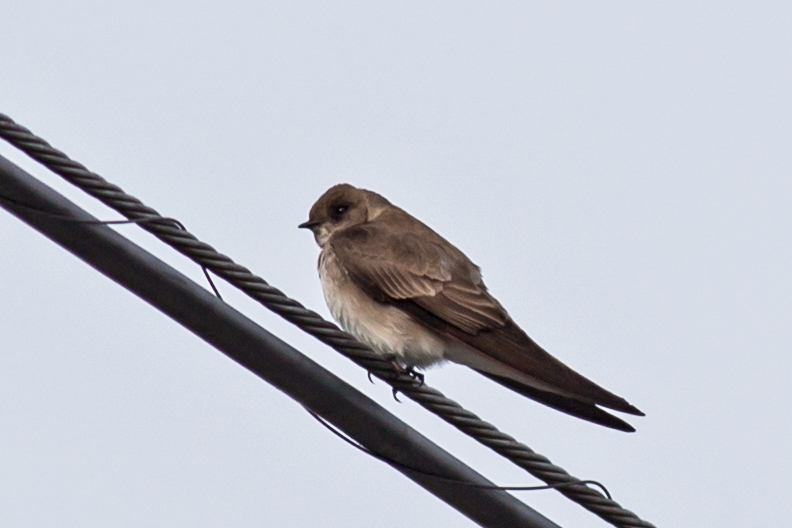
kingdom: Animalia
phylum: Chordata
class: Aves
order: Passeriformes
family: Hirundinidae
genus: Stelgidopteryx
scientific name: Stelgidopteryx serripennis
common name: Northern rough-winged swallow
